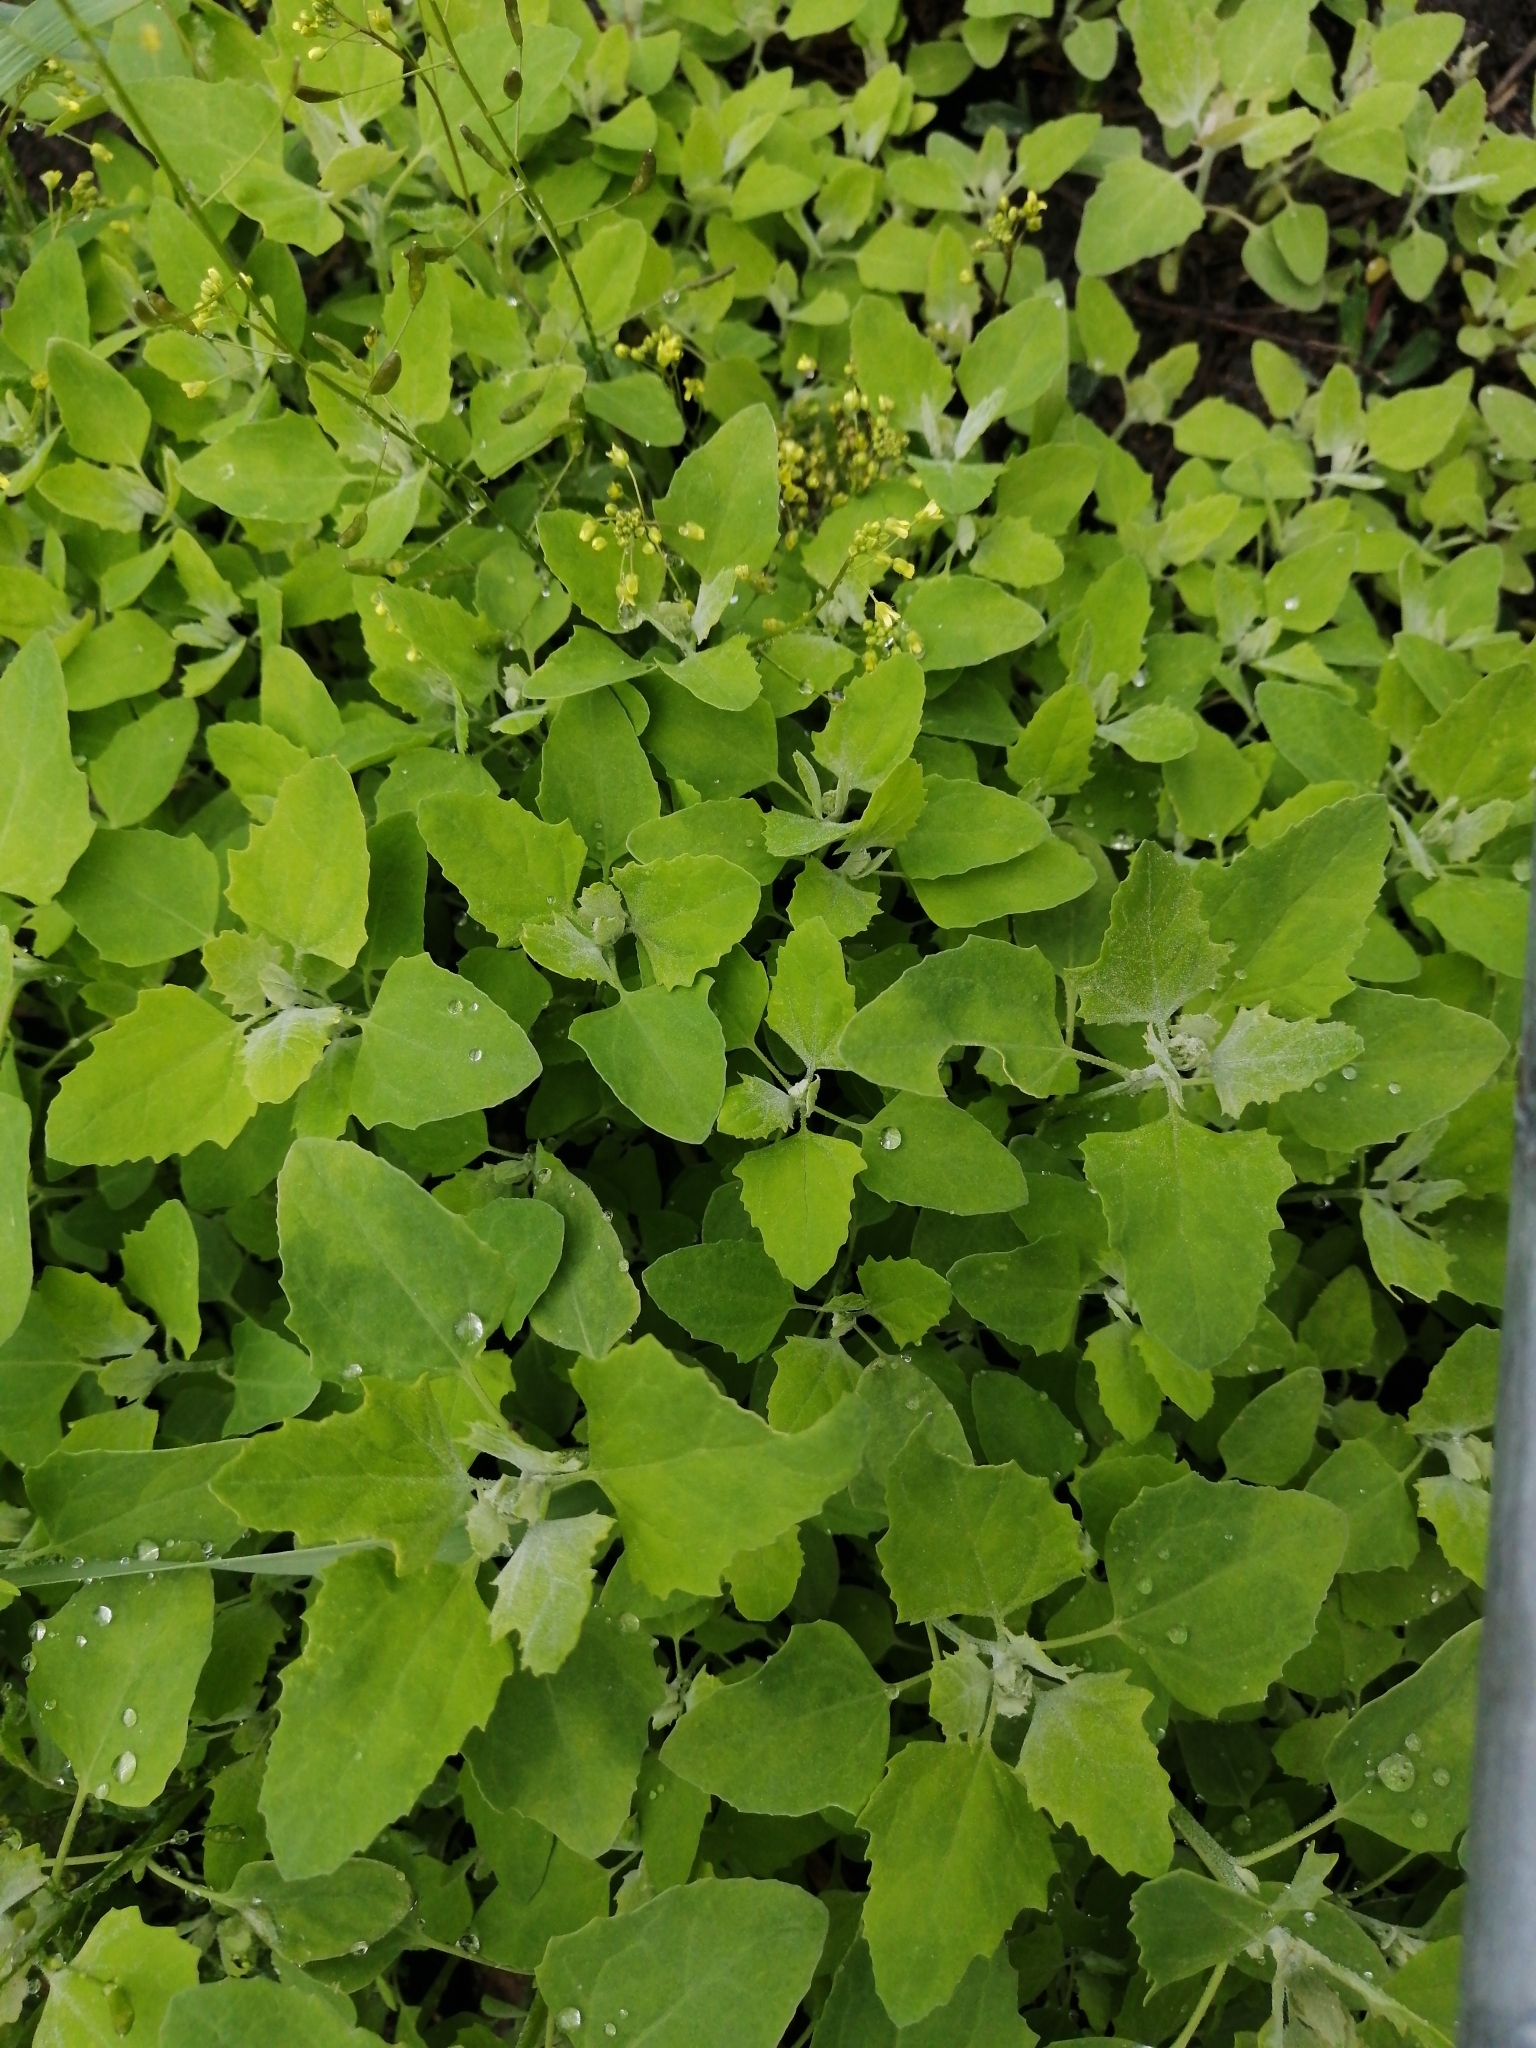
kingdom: Plantae
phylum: Tracheophyta
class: Magnoliopsida
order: Caryophyllales
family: Amaranthaceae
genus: Chenopodium
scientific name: Chenopodium album
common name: Fat-hen
